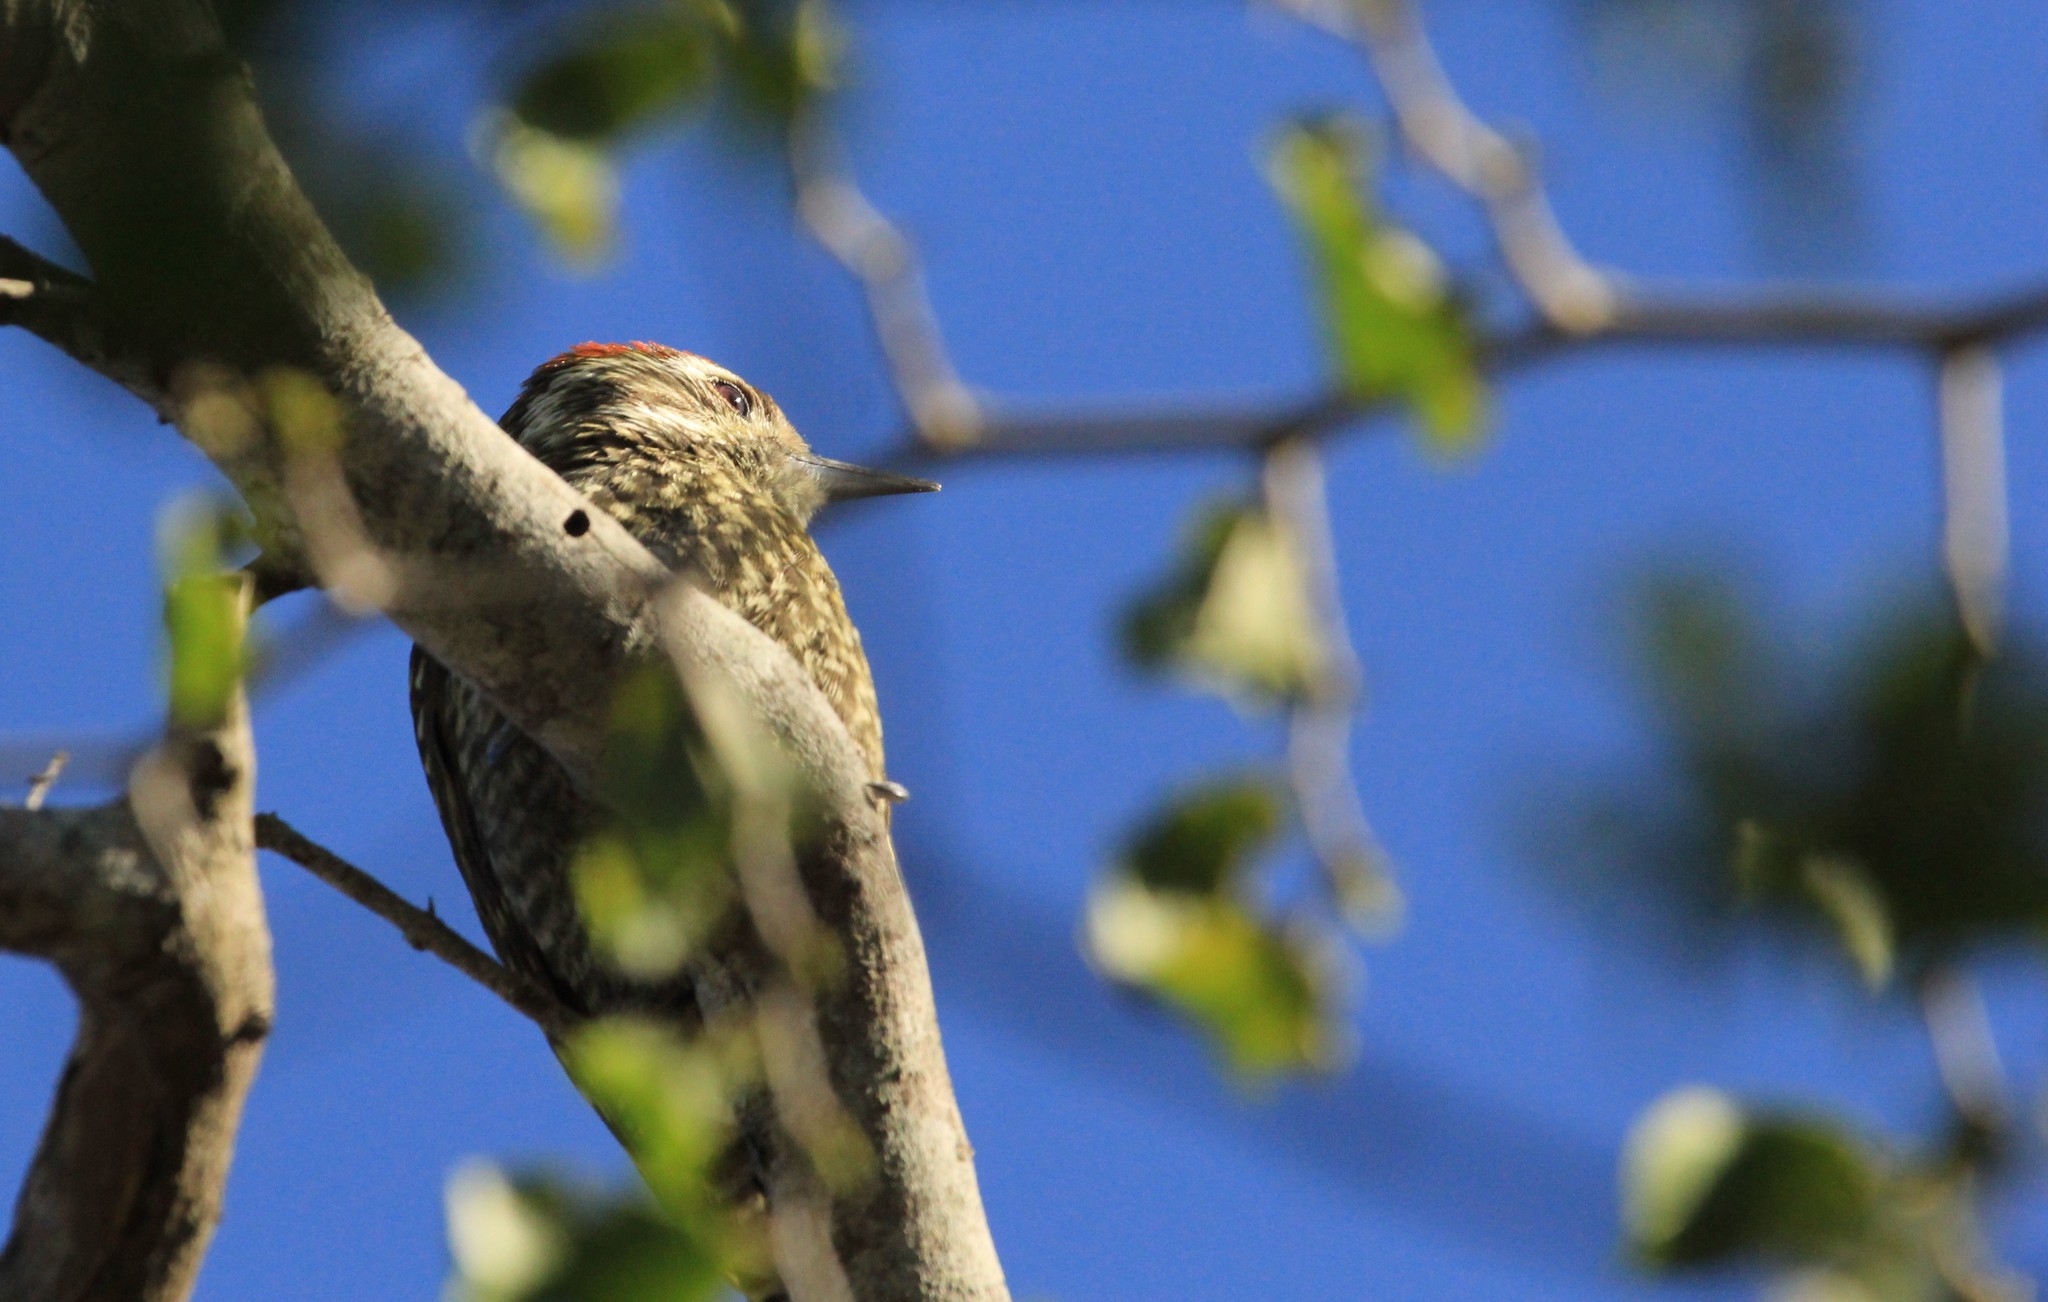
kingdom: Animalia
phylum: Chordata
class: Aves
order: Piciformes
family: Picidae
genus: Veniliornis
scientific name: Veniliornis spilogaster
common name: White-spotted woodpecker
